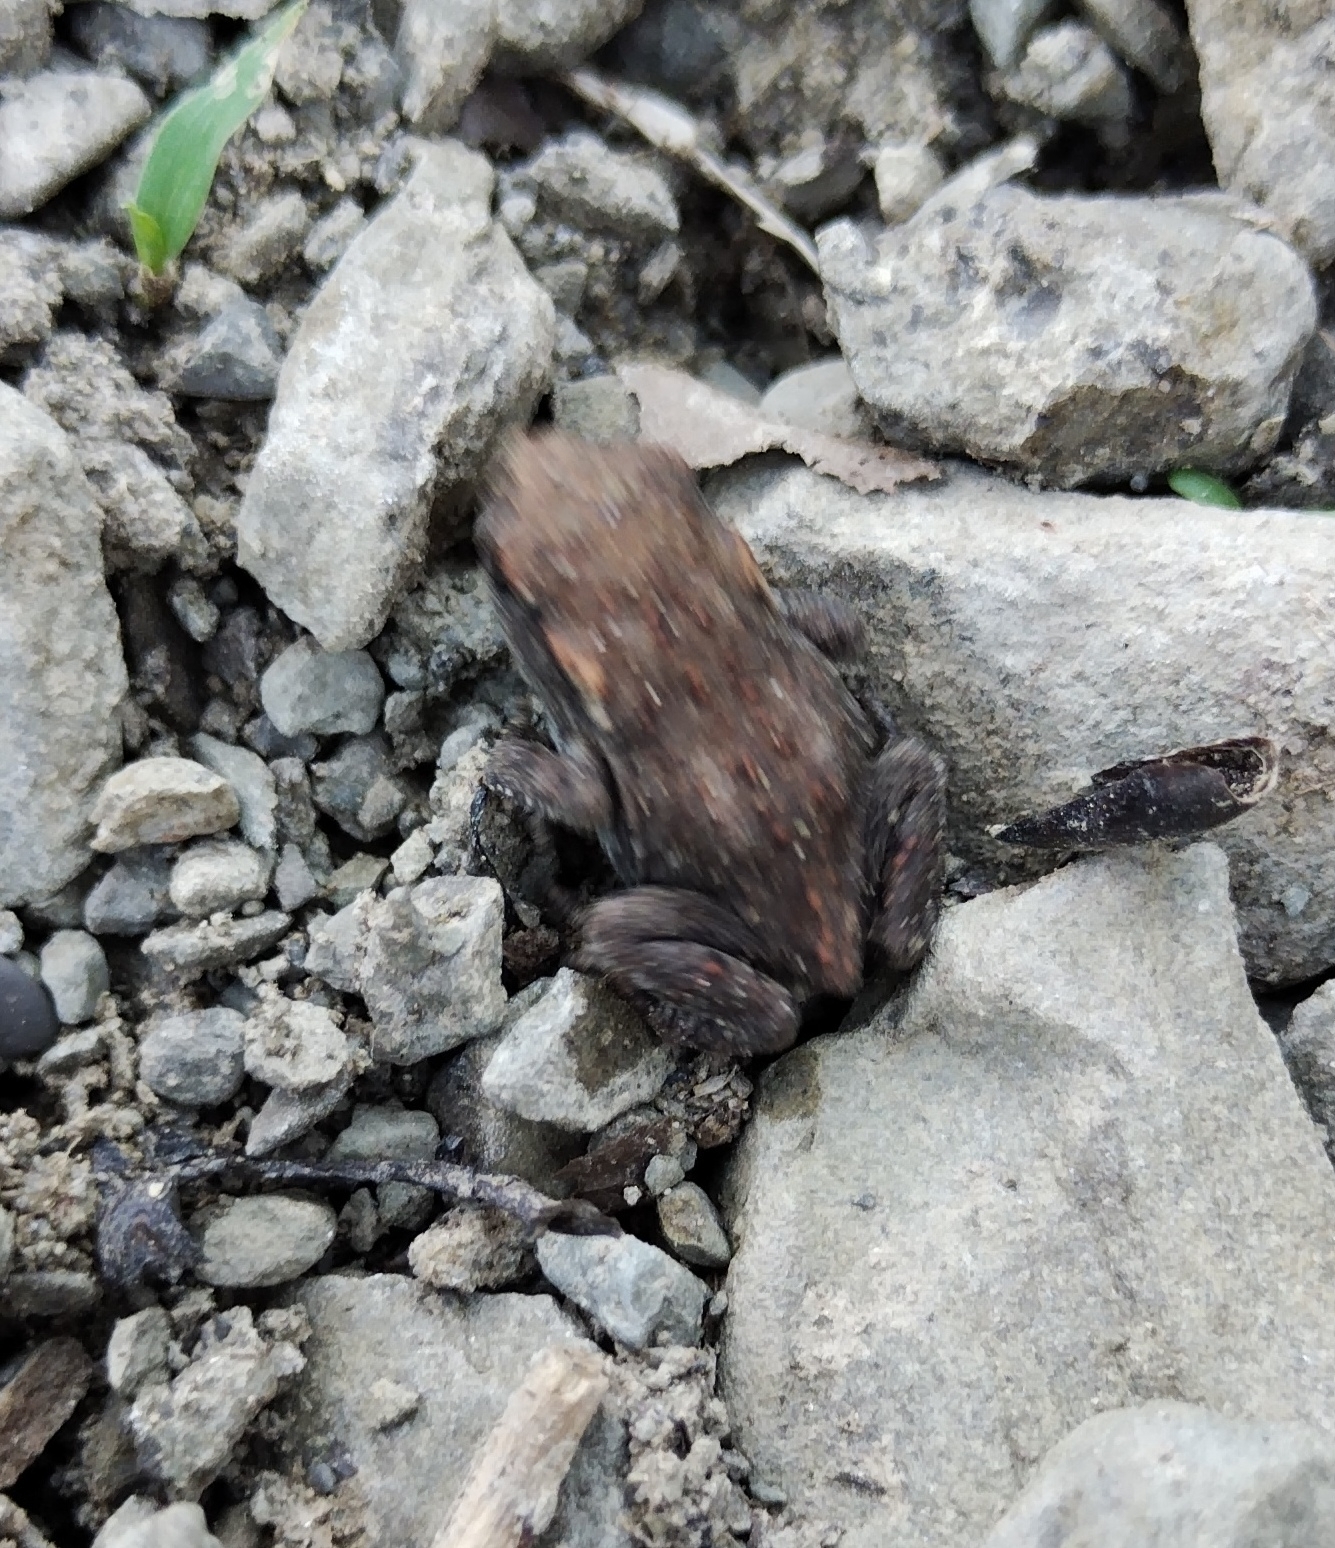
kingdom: Animalia
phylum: Chordata
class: Amphibia
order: Anura
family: Bufonidae
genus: Bufo
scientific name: Bufo bufo
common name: Common toad
